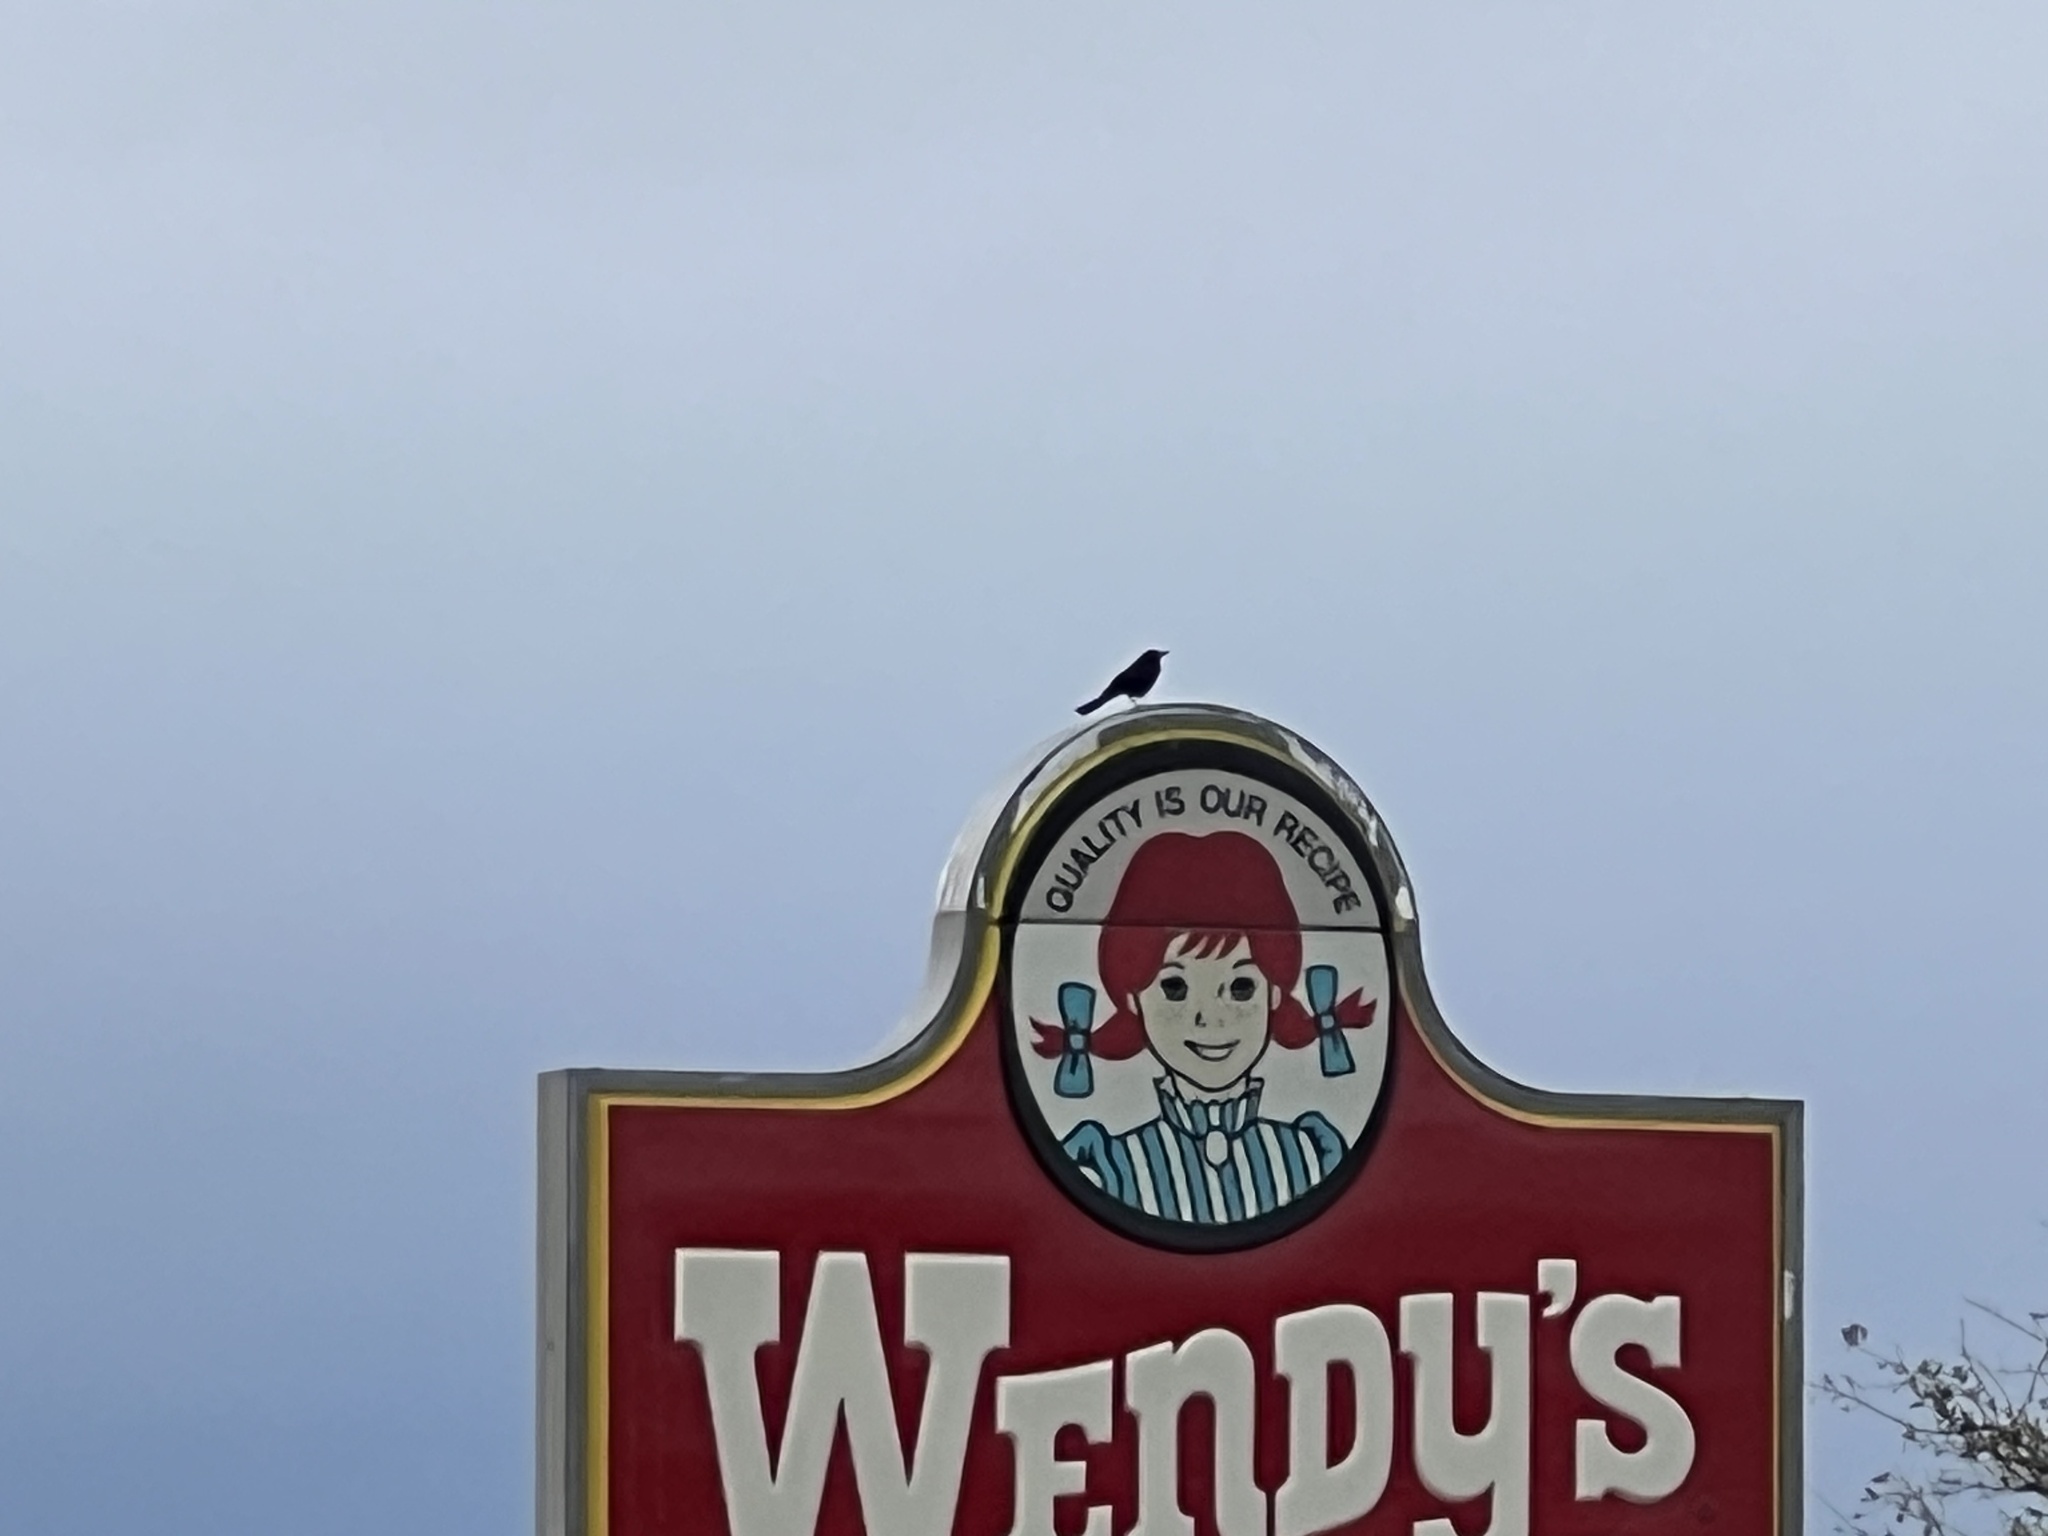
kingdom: Animalia
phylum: Chordata
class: Aves
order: Passeriformes
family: Icteridae
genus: Quiscalus
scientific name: Quiscalus mexicanus
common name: Great-tailed grackle
